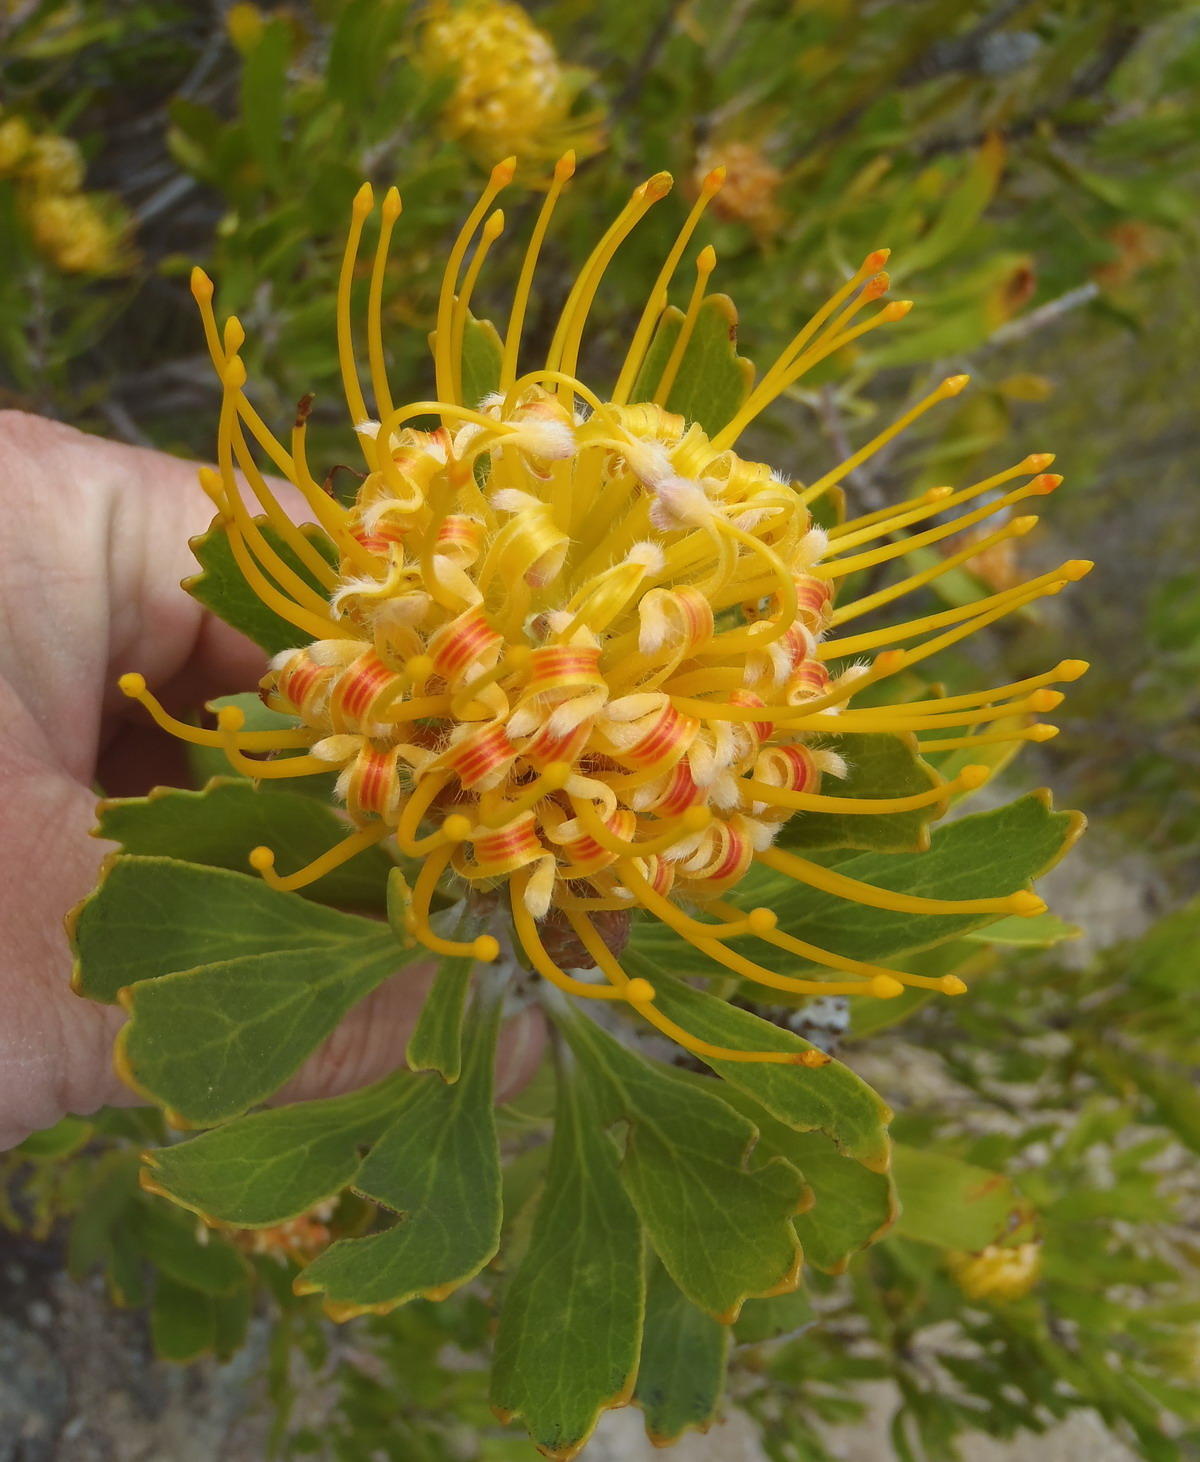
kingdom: Plantae
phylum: Tracheophyta
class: Magnoliopsida
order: Proteales
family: Proteaceae
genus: Leucospermum
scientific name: Leucospermum cuneiforme
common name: Common pincushion
